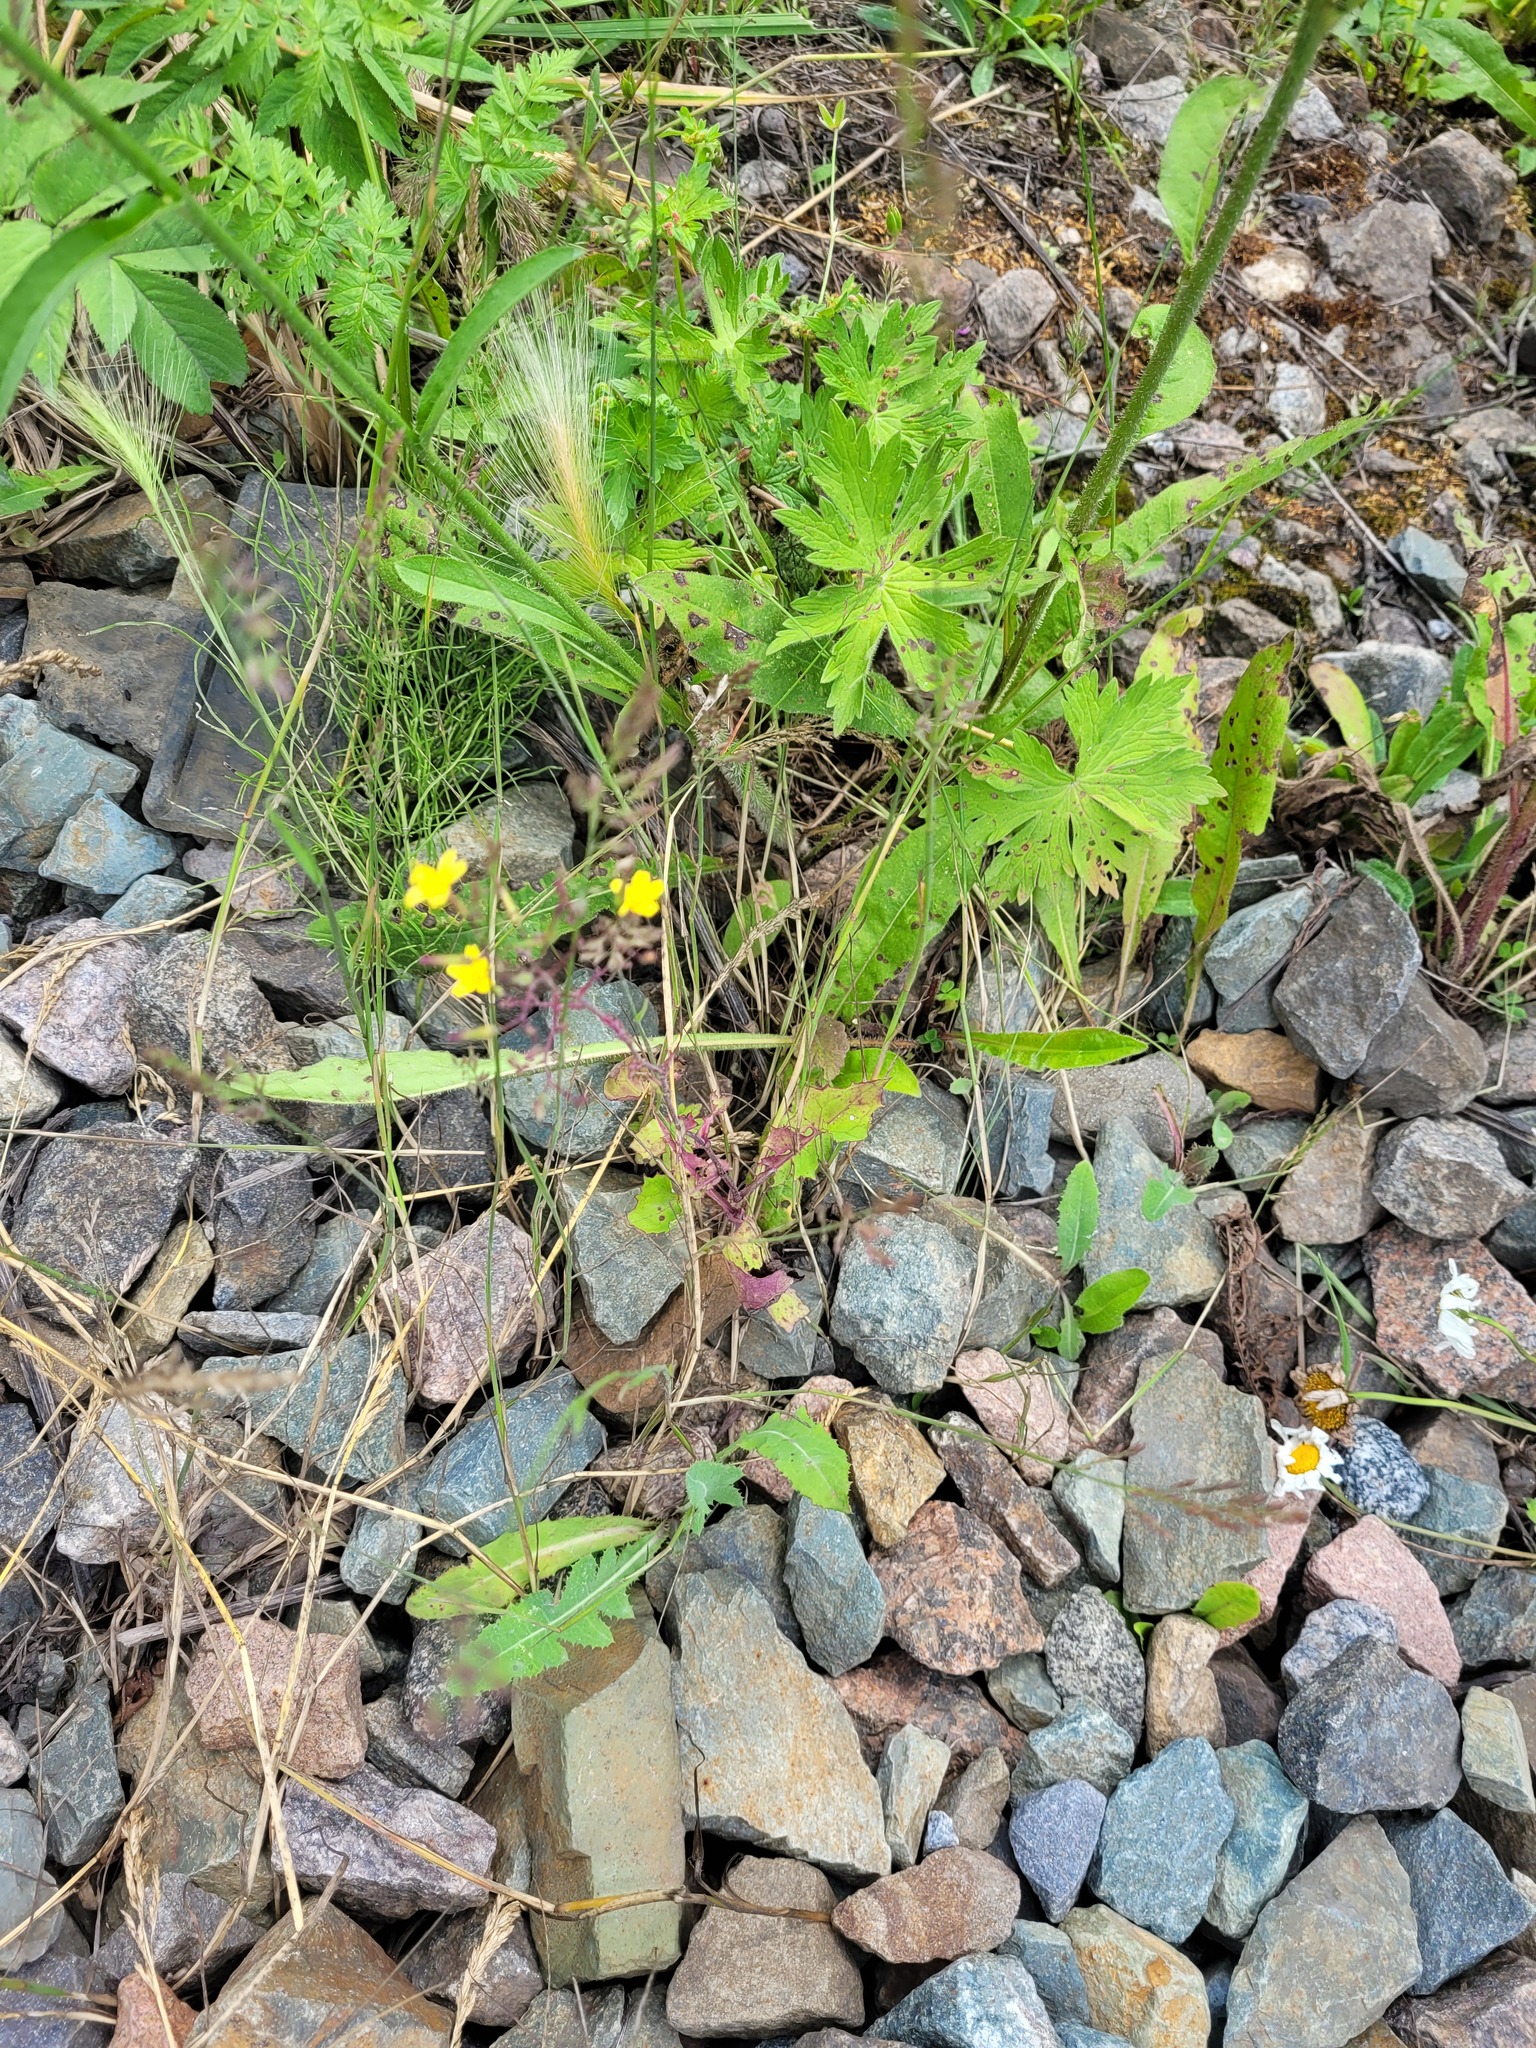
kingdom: Plantae
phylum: Tracheophyta
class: Magnoliopsida
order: Asterales
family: Asteraceae
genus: Mycelis
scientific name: Mycelis muralis
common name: Wall lettuce
